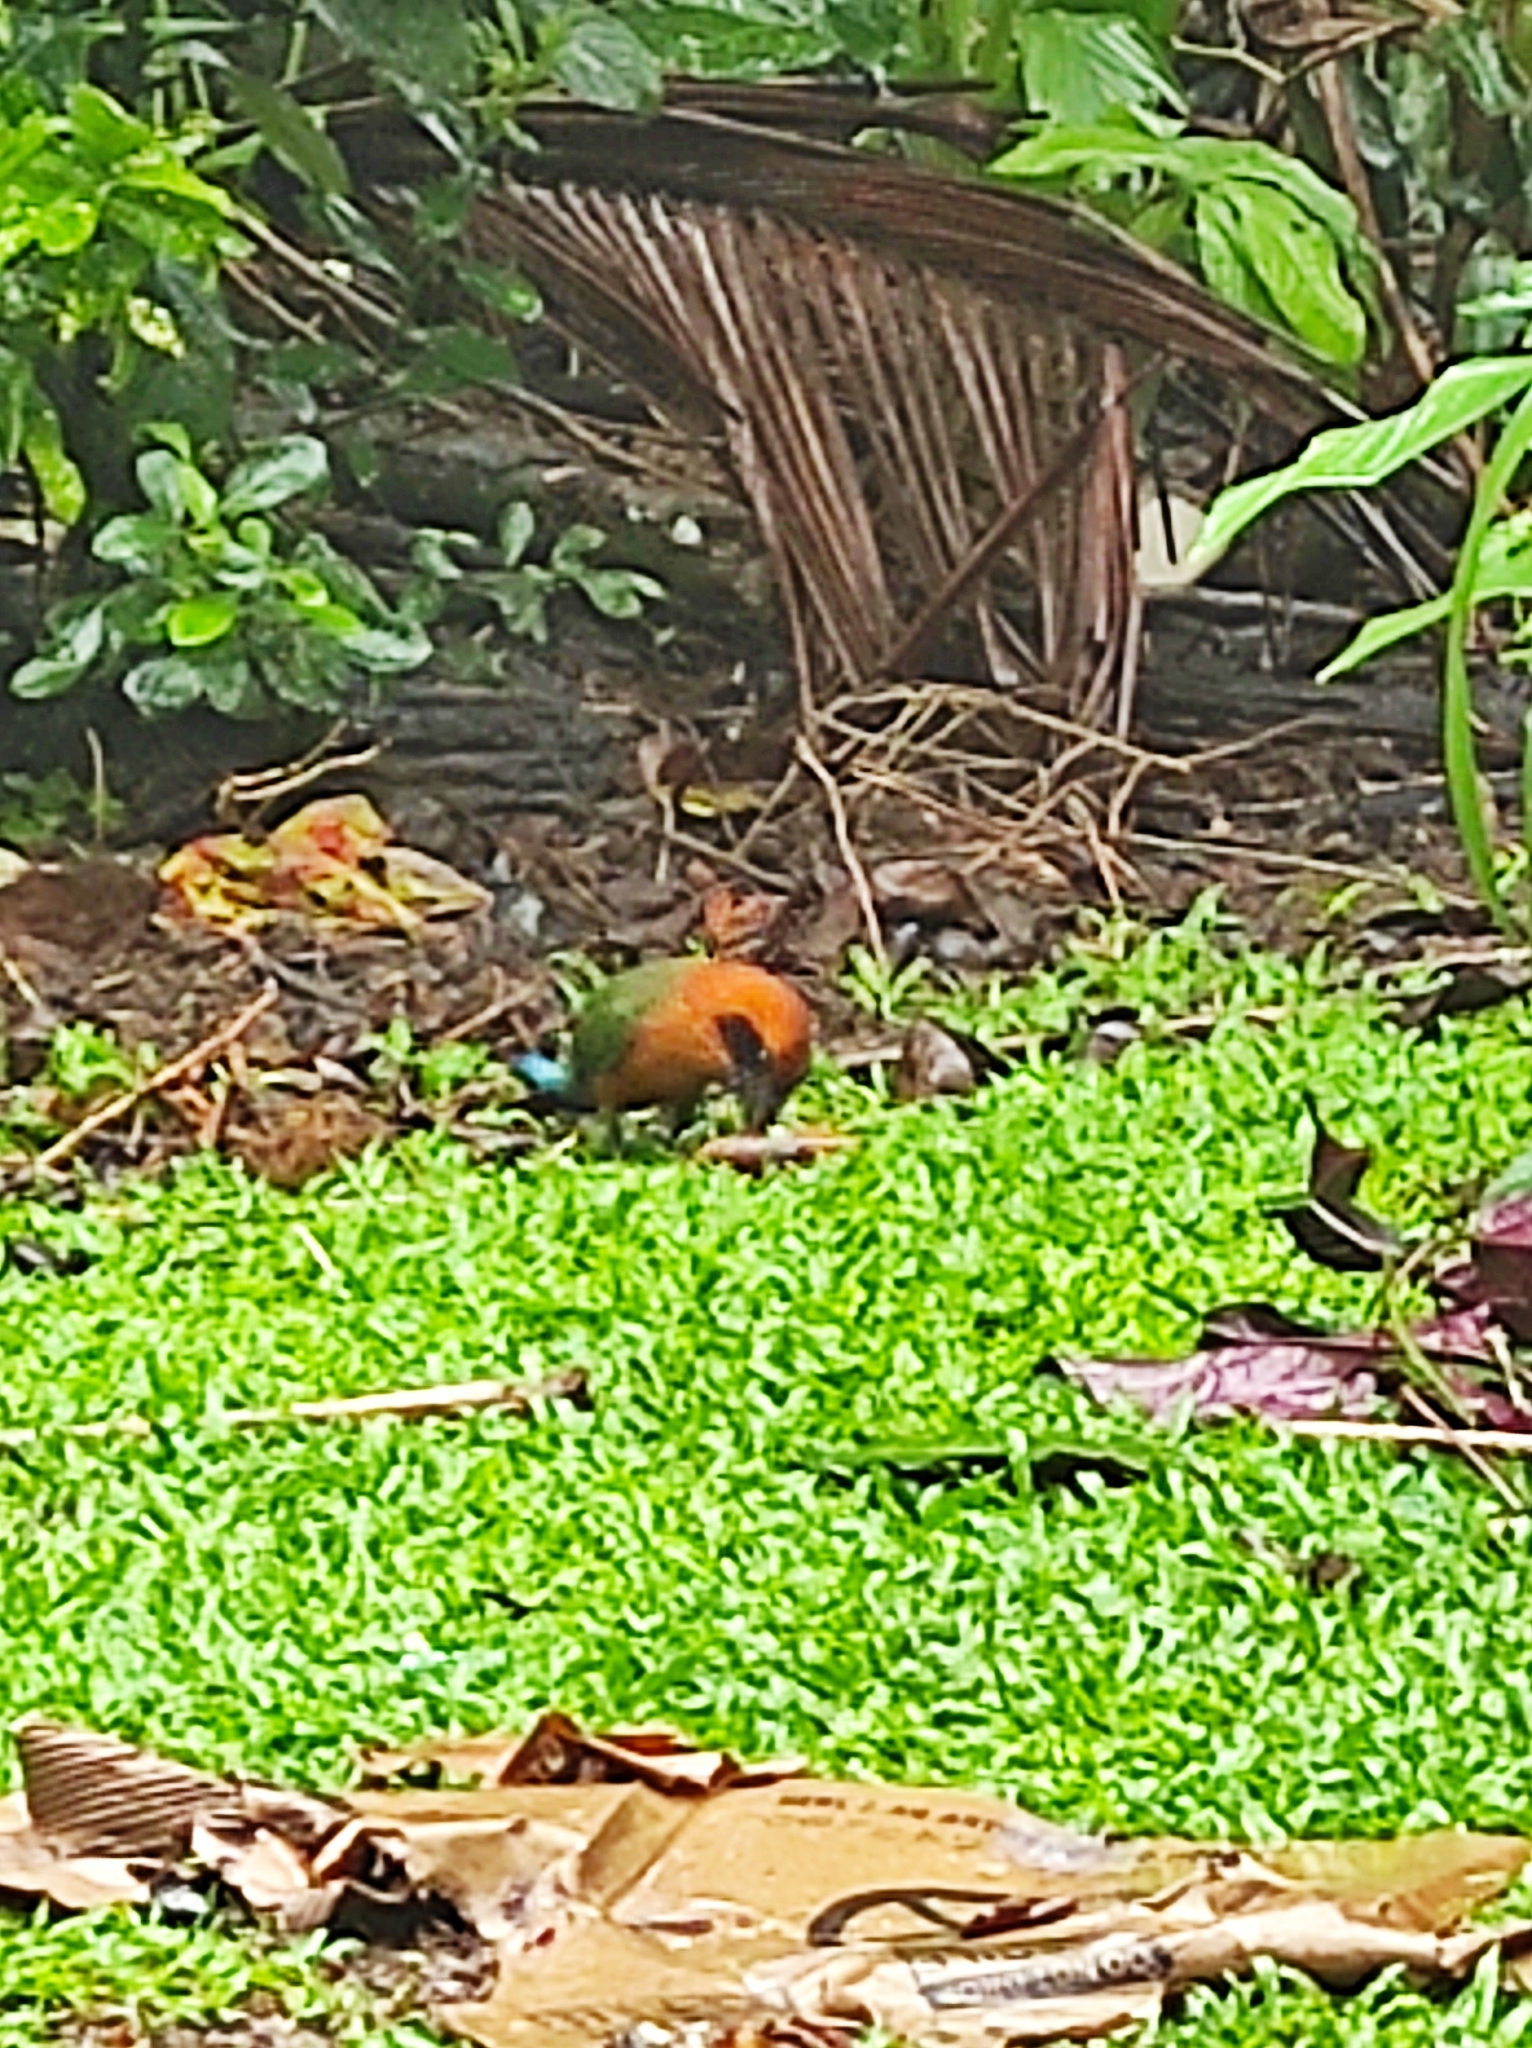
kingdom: Animalia
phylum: Chordata
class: Aves
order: Coraciiformes
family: Momotidae
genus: Baryphthengus
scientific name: Baryphthengus martii
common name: Rufous motmot
